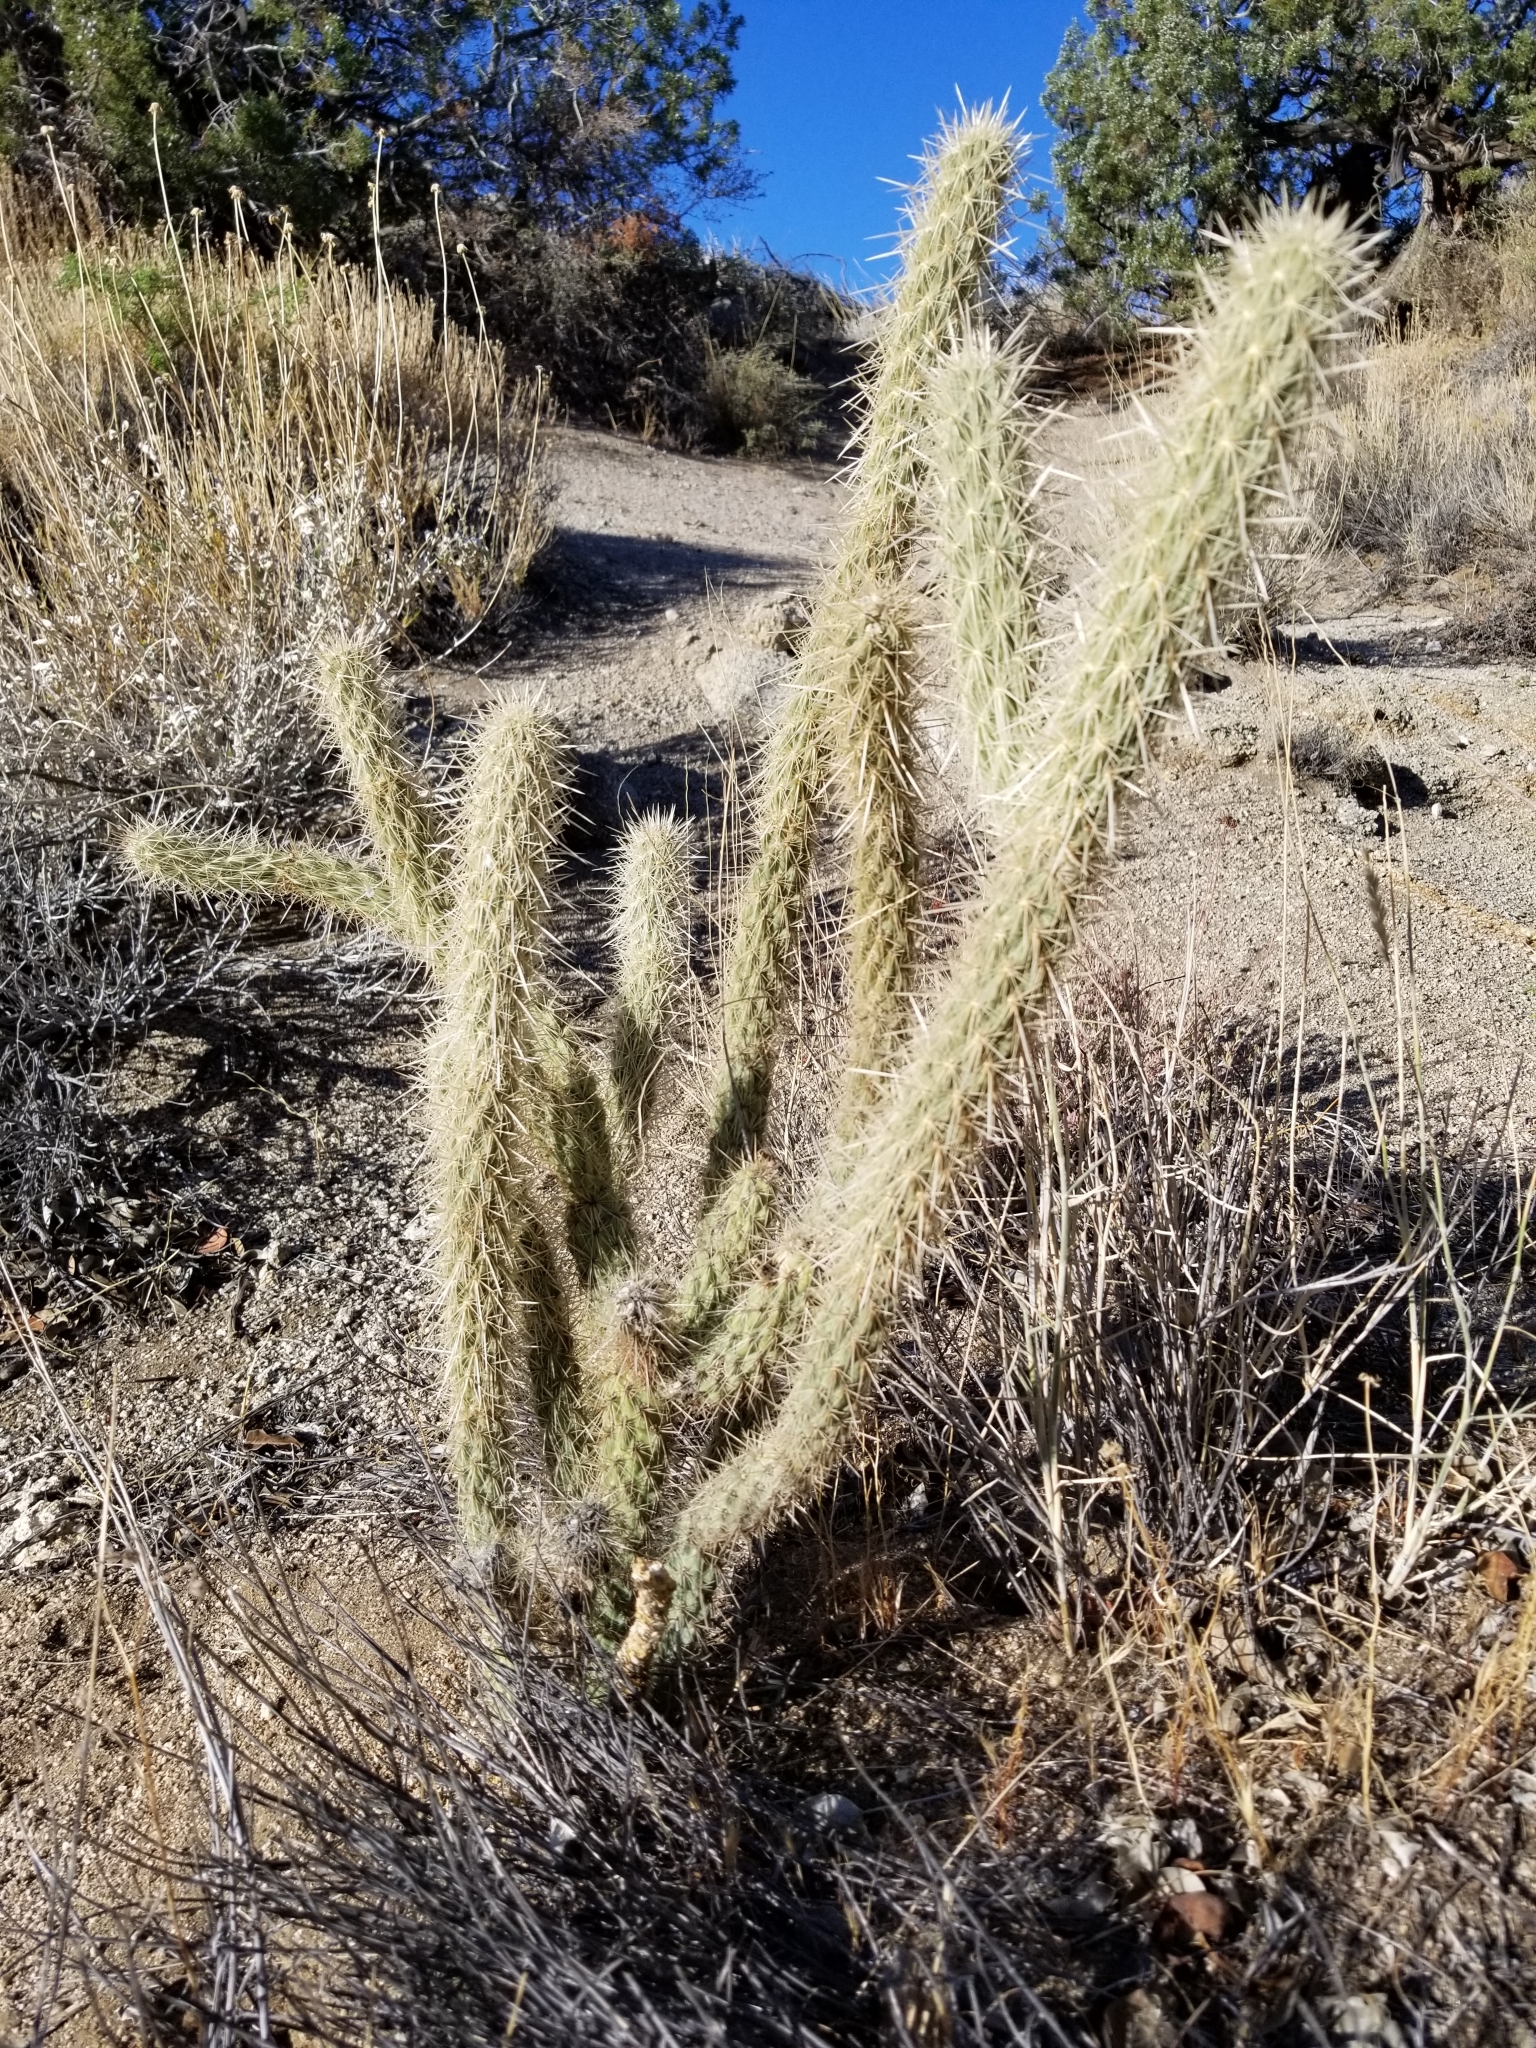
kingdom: Plantae
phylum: Tracheophyta
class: Magnoliopsida
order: Caryophyllales
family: Cactaceae
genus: Cylindropuntia
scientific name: Cylindropuntia ganderi
